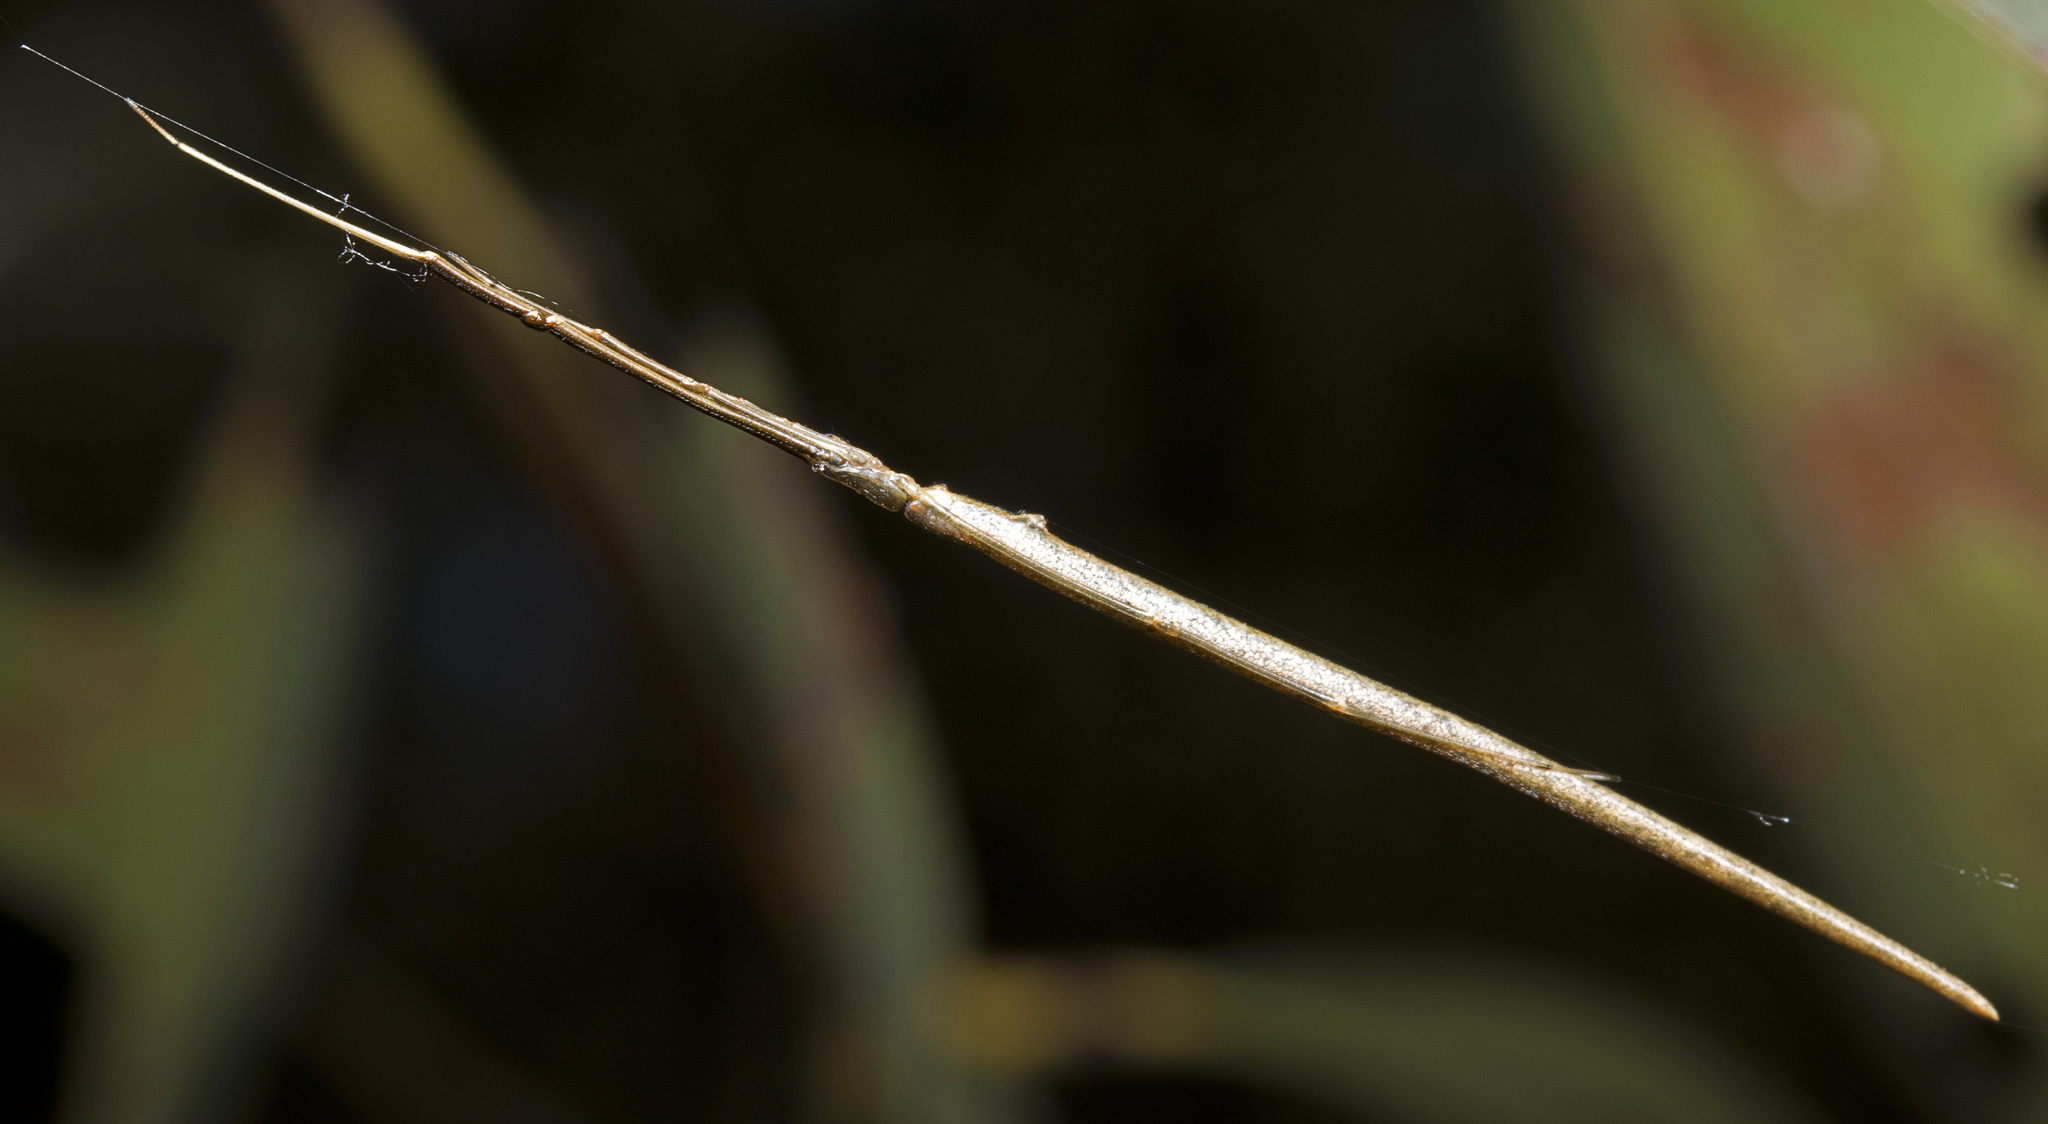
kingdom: Animalia
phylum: Arthropoda
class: Arachnida
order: Araneae
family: Theridiidae
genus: Ariamnes
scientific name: Ariamnes colubrinus
